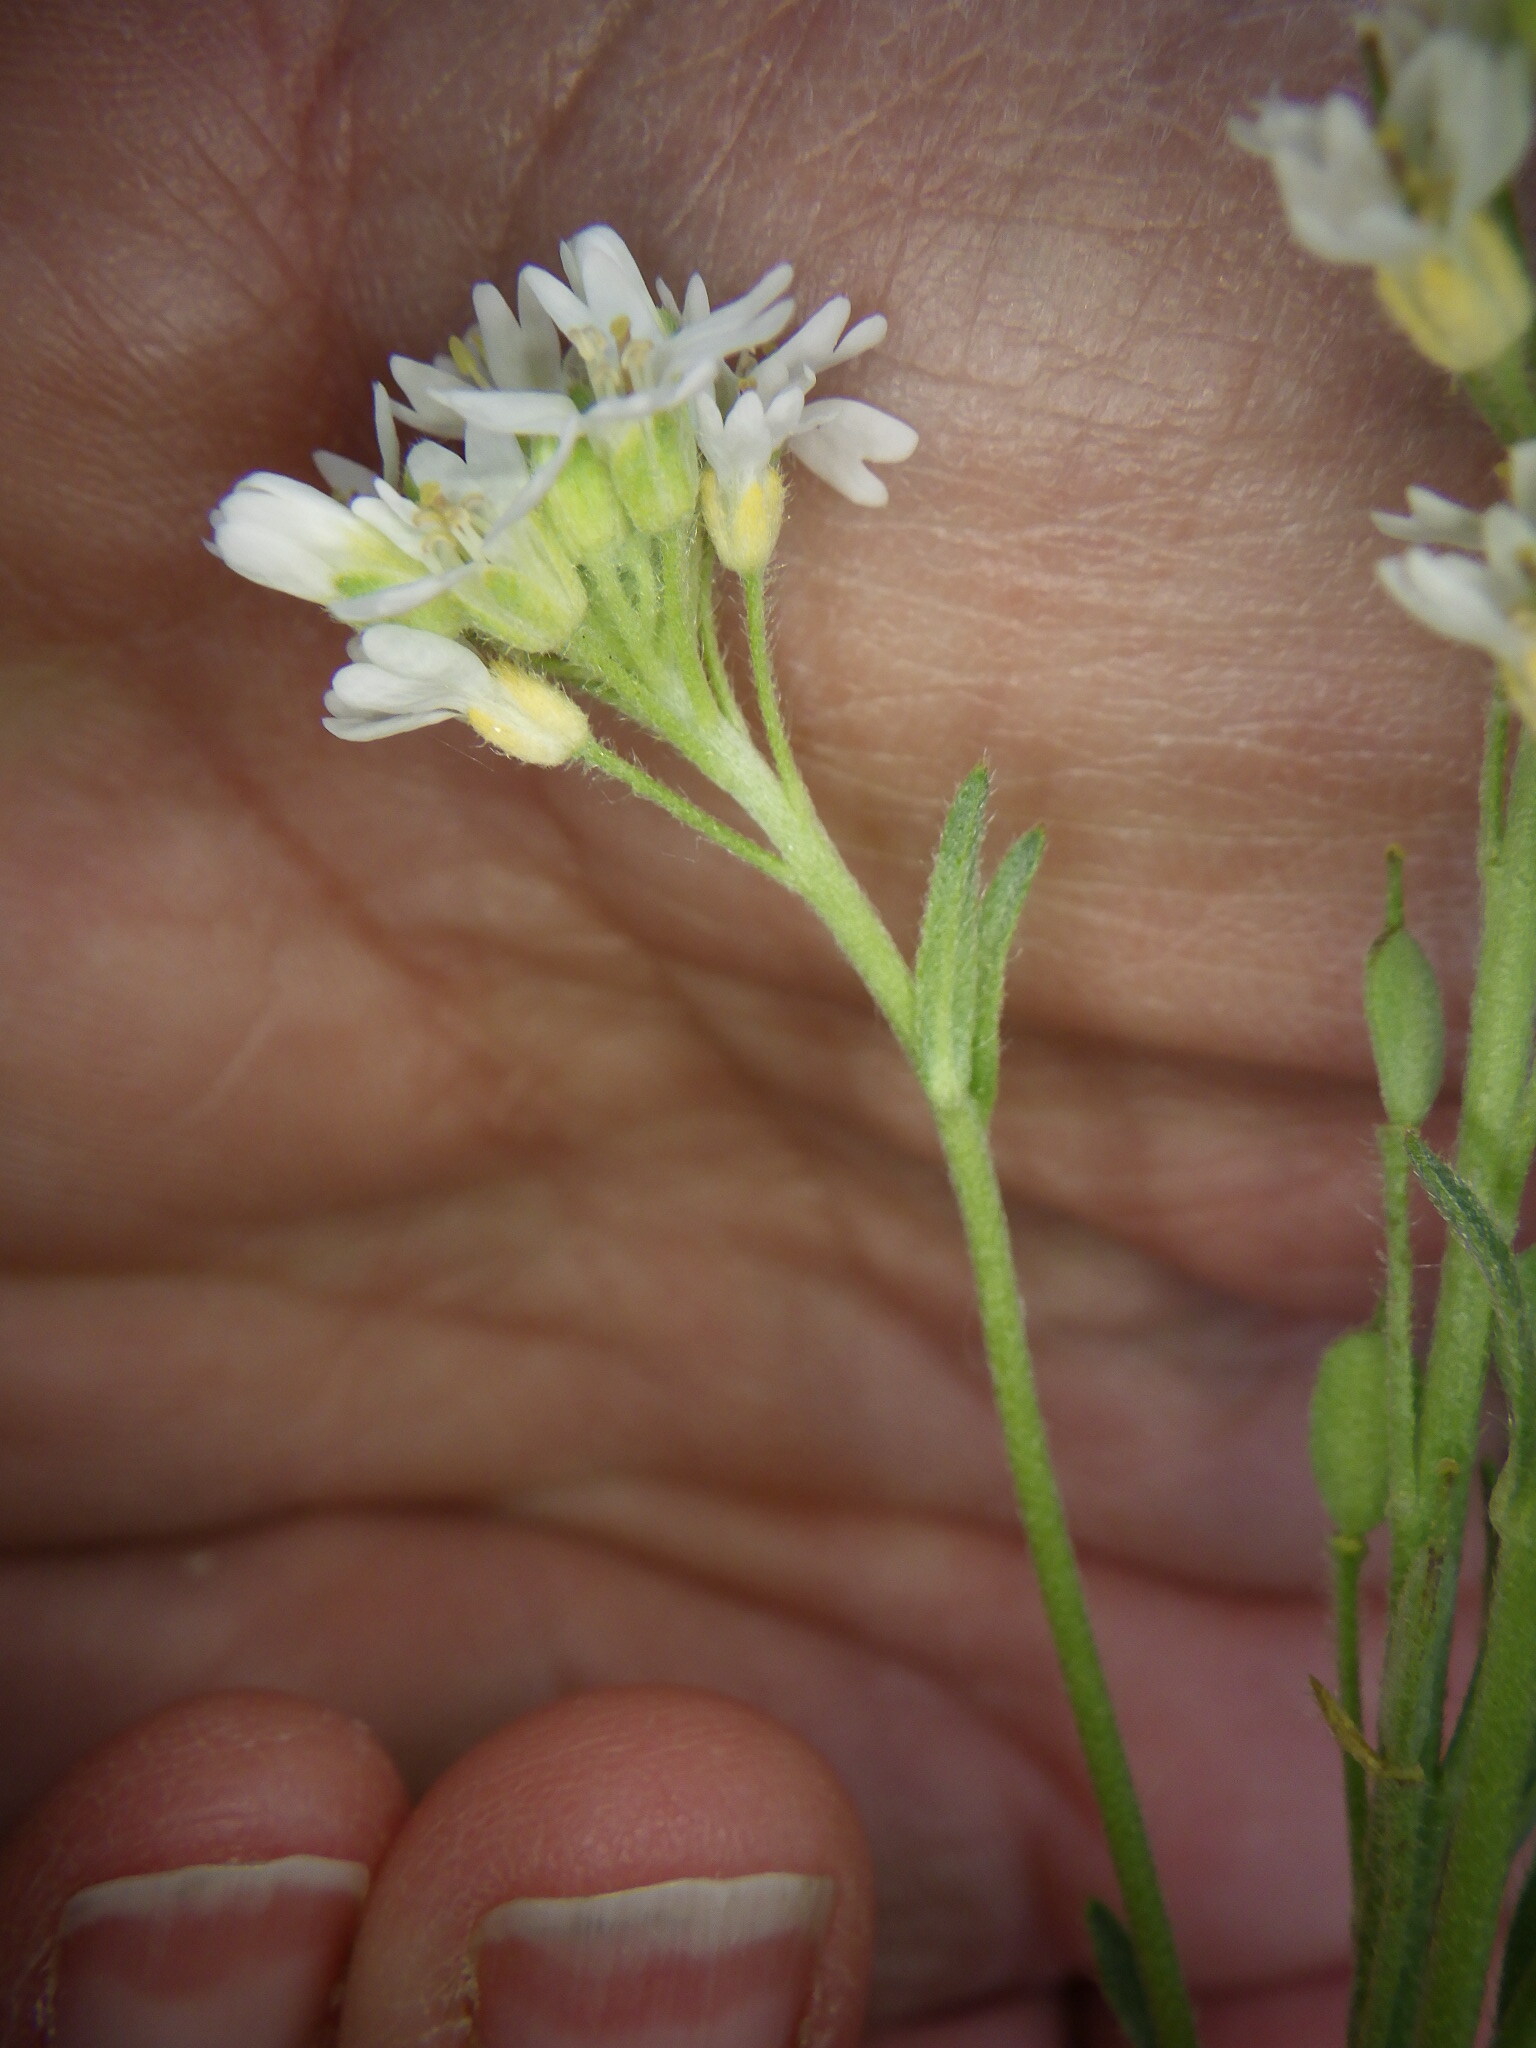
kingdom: Plantae
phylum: Tracheophyta
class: Magnoliopsida
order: Brassicales
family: Brassicaceae
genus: Berteroa
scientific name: Berteroa incana
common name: Hoary alison
